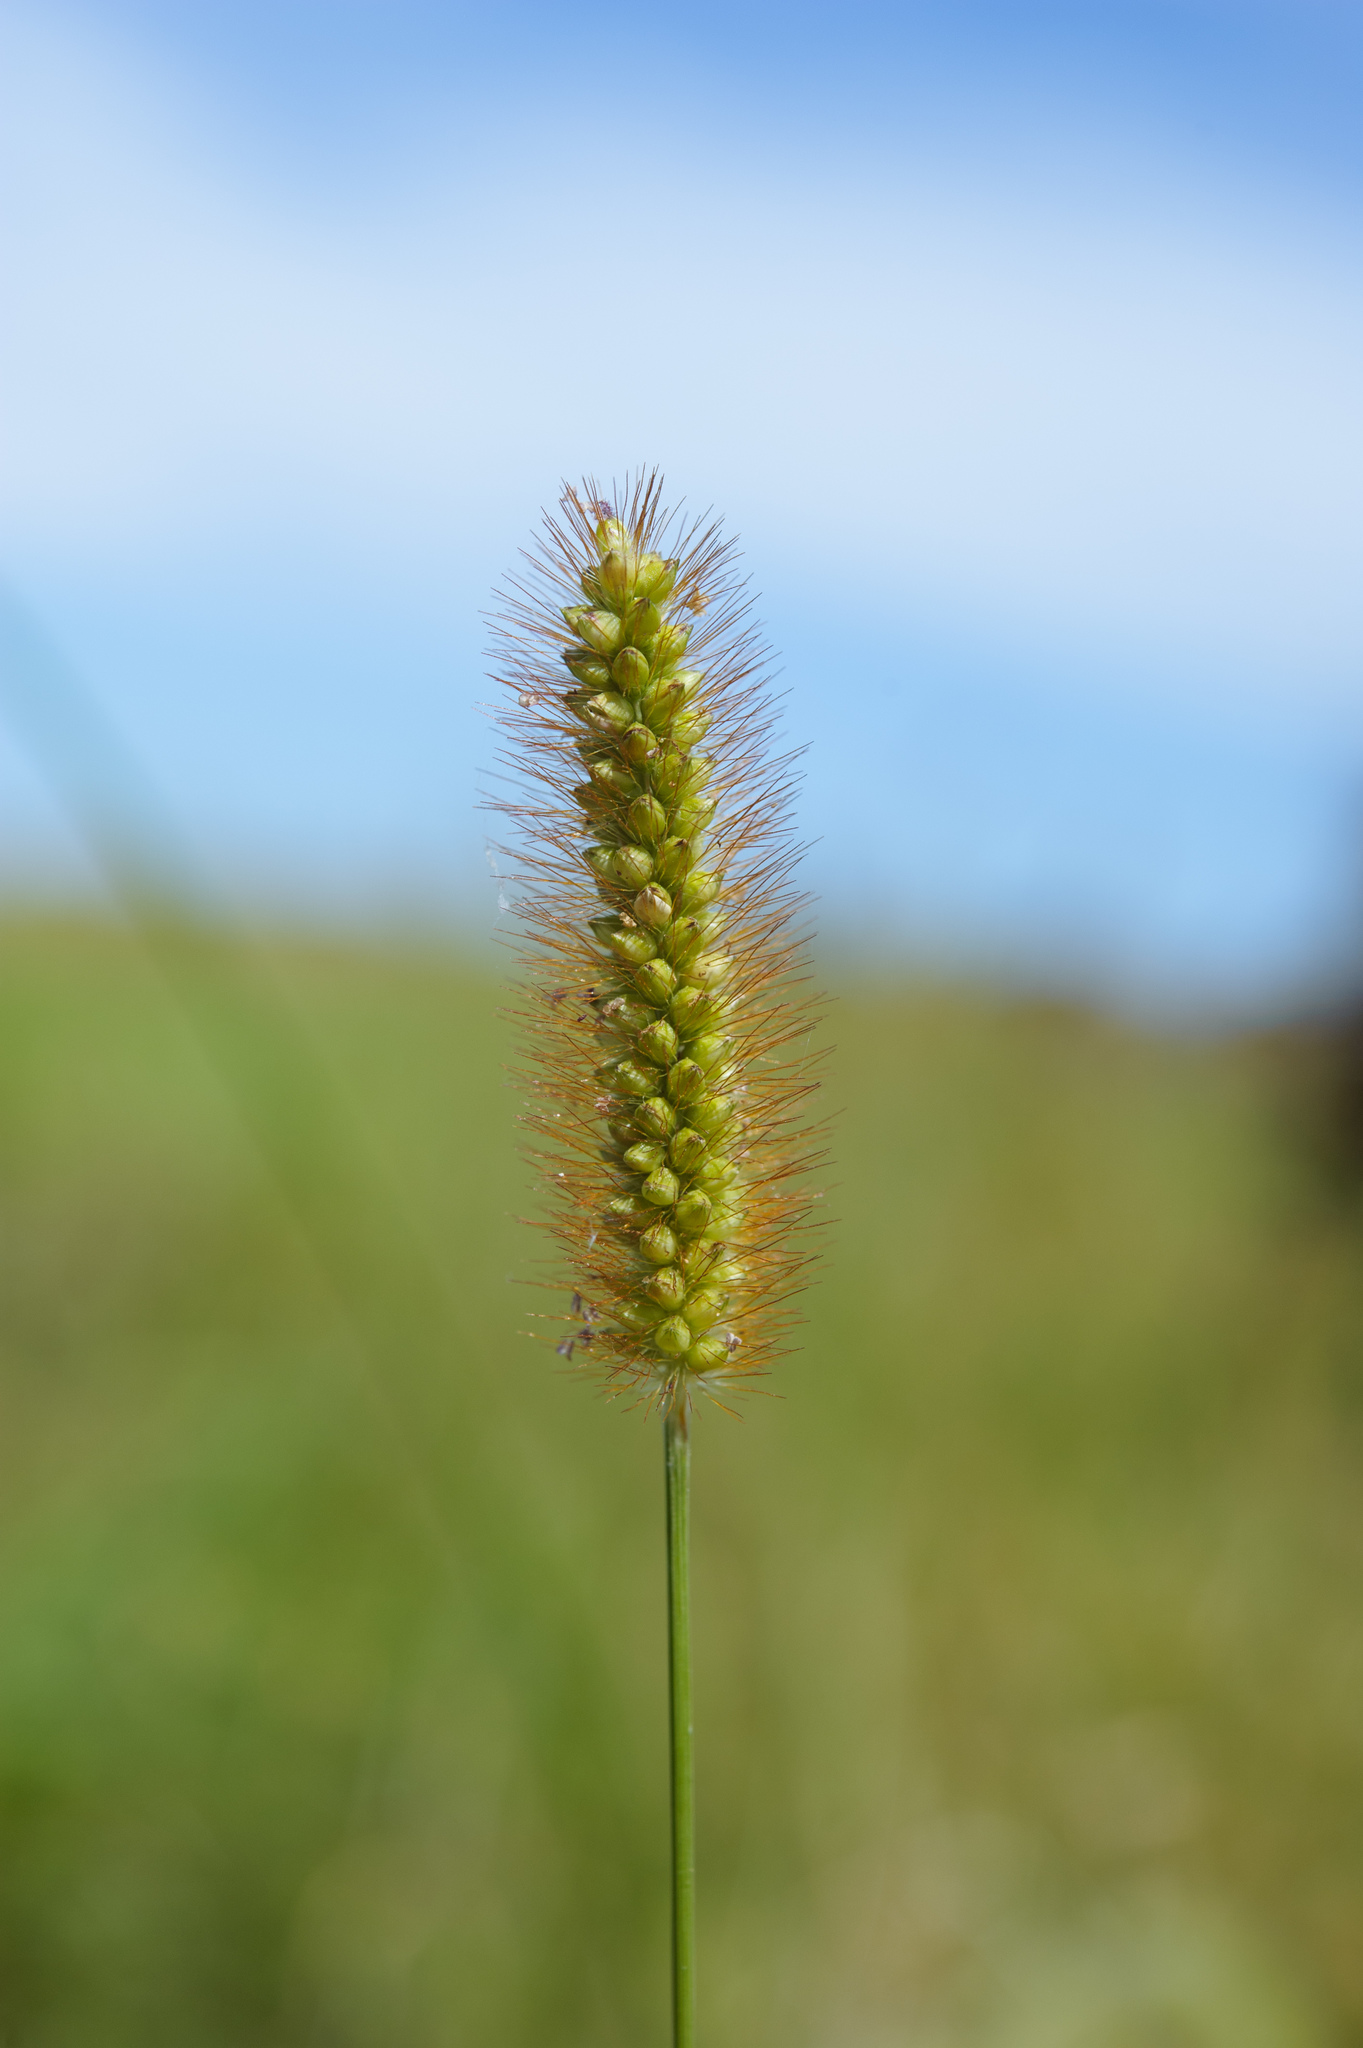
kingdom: Plantae
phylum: Tracheophyta
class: Liliopsida
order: Poales
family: Poaceae
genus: Setaria
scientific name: Setaria parviflora
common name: Knotroot bristle-grass
